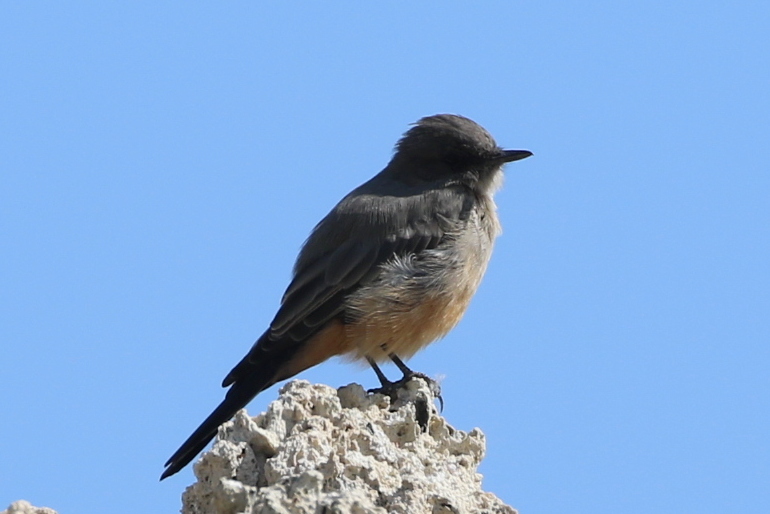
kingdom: Animalia
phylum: Chordata
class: Aves
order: Passeriformes
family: Tyrannidae
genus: Sayornis
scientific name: Sayornis saya
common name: Say's phoebe
